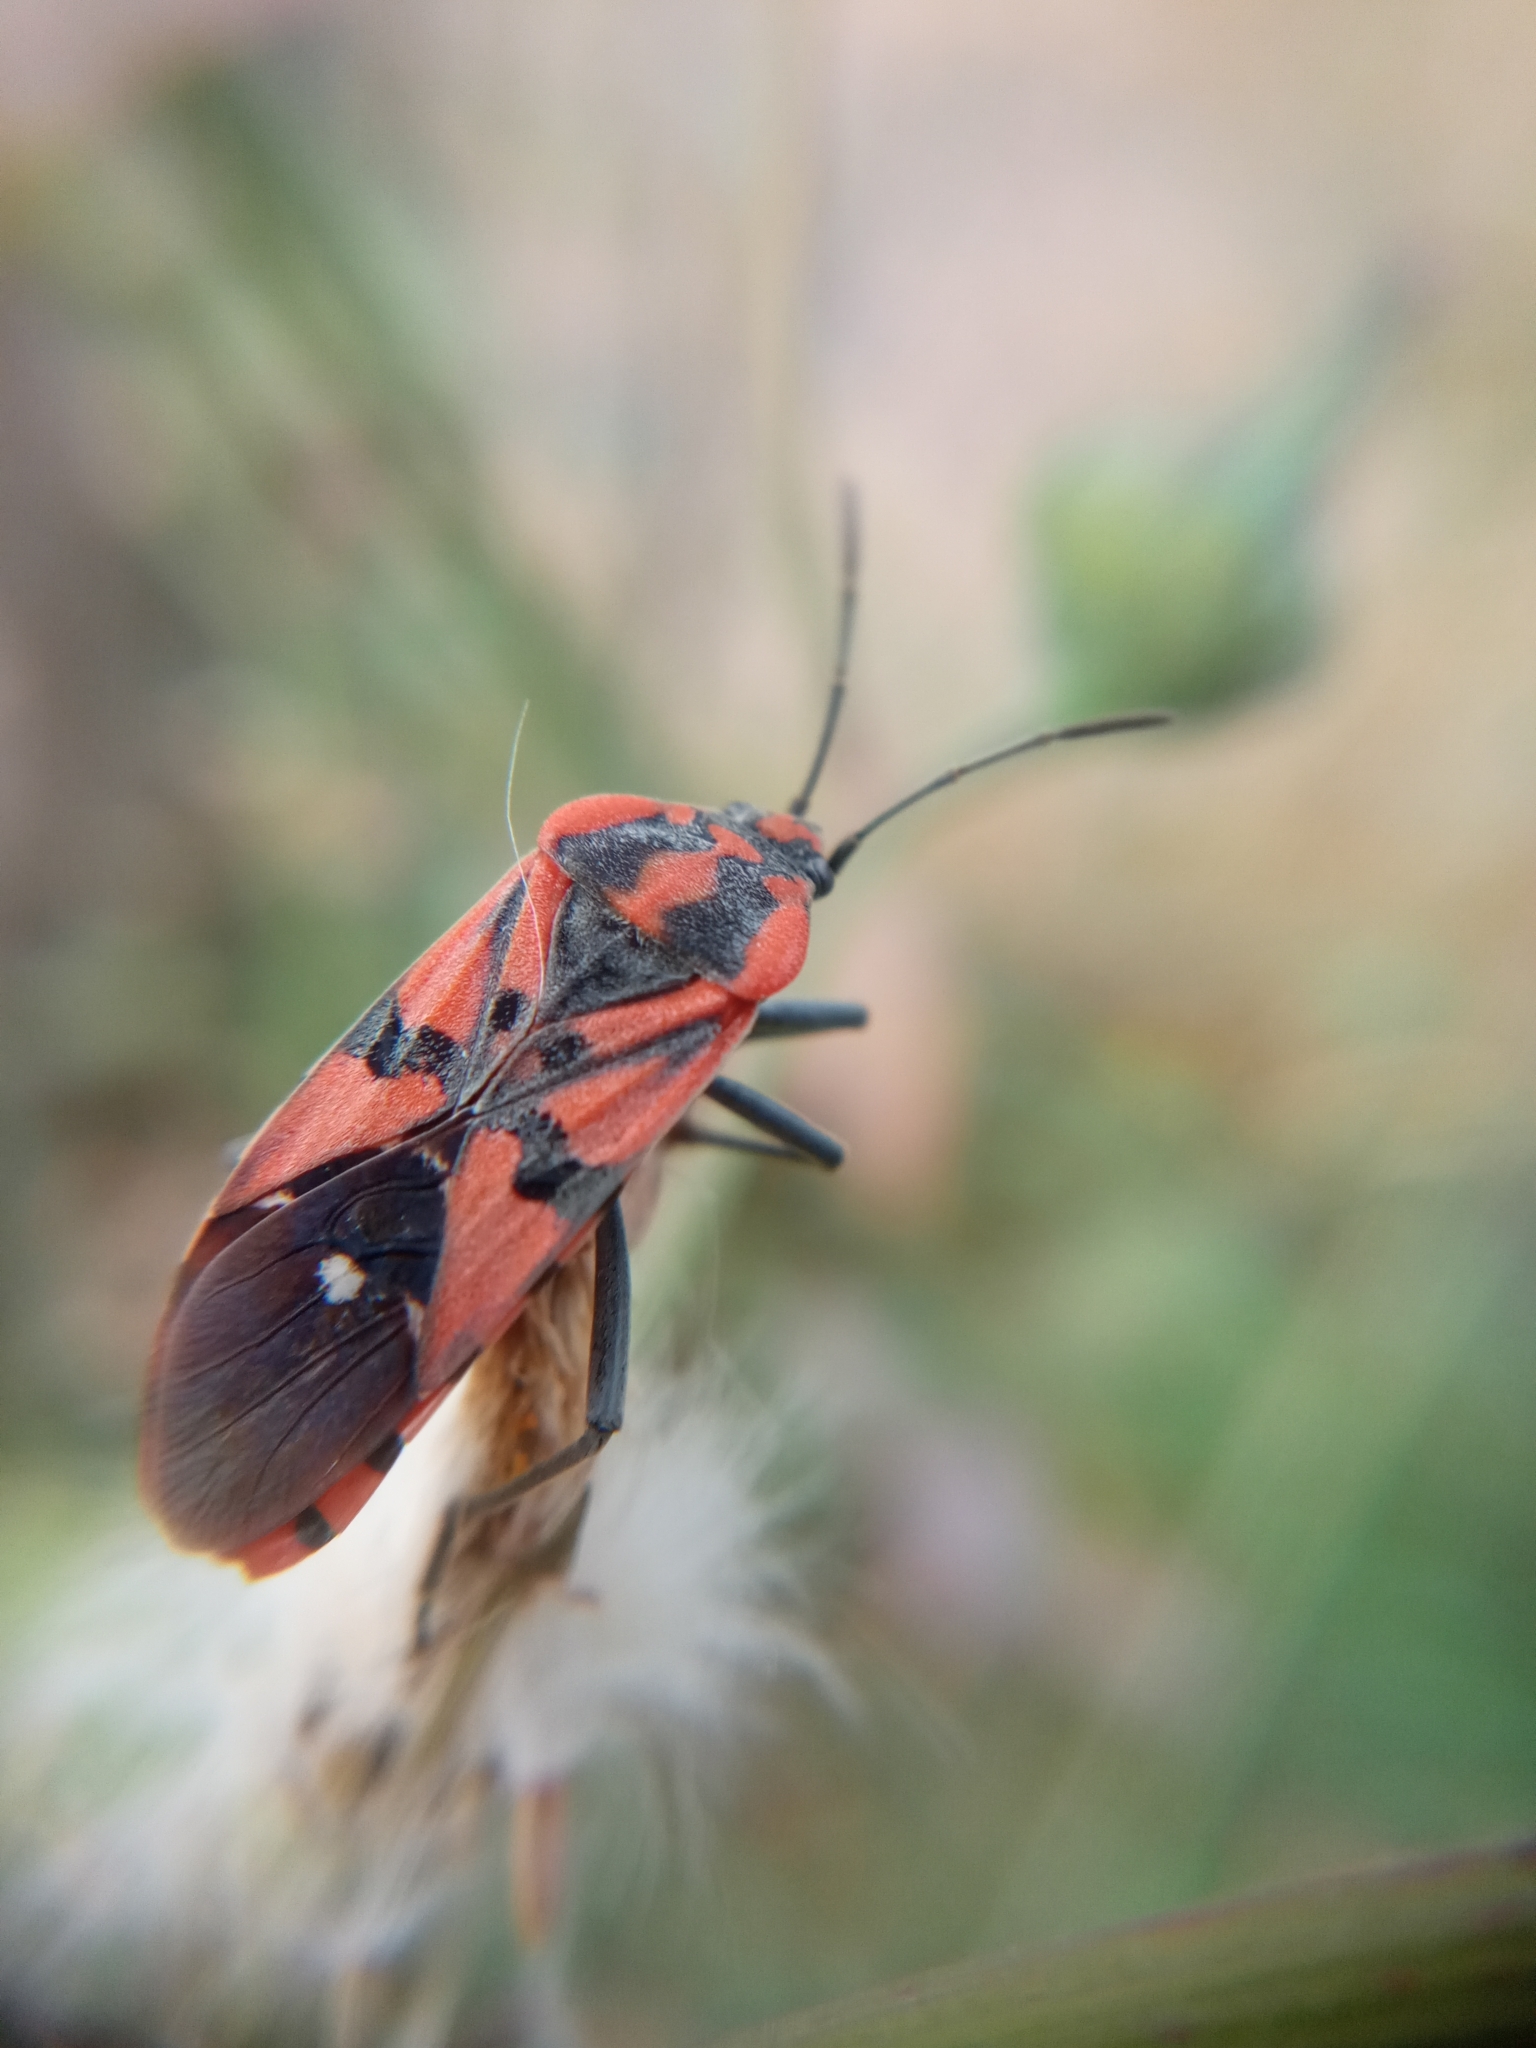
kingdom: Animalia
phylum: Arthropoda
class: Insecta
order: Hemiptera
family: Lygaeidae
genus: Spilostethus
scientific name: Spilostethus pandurus
